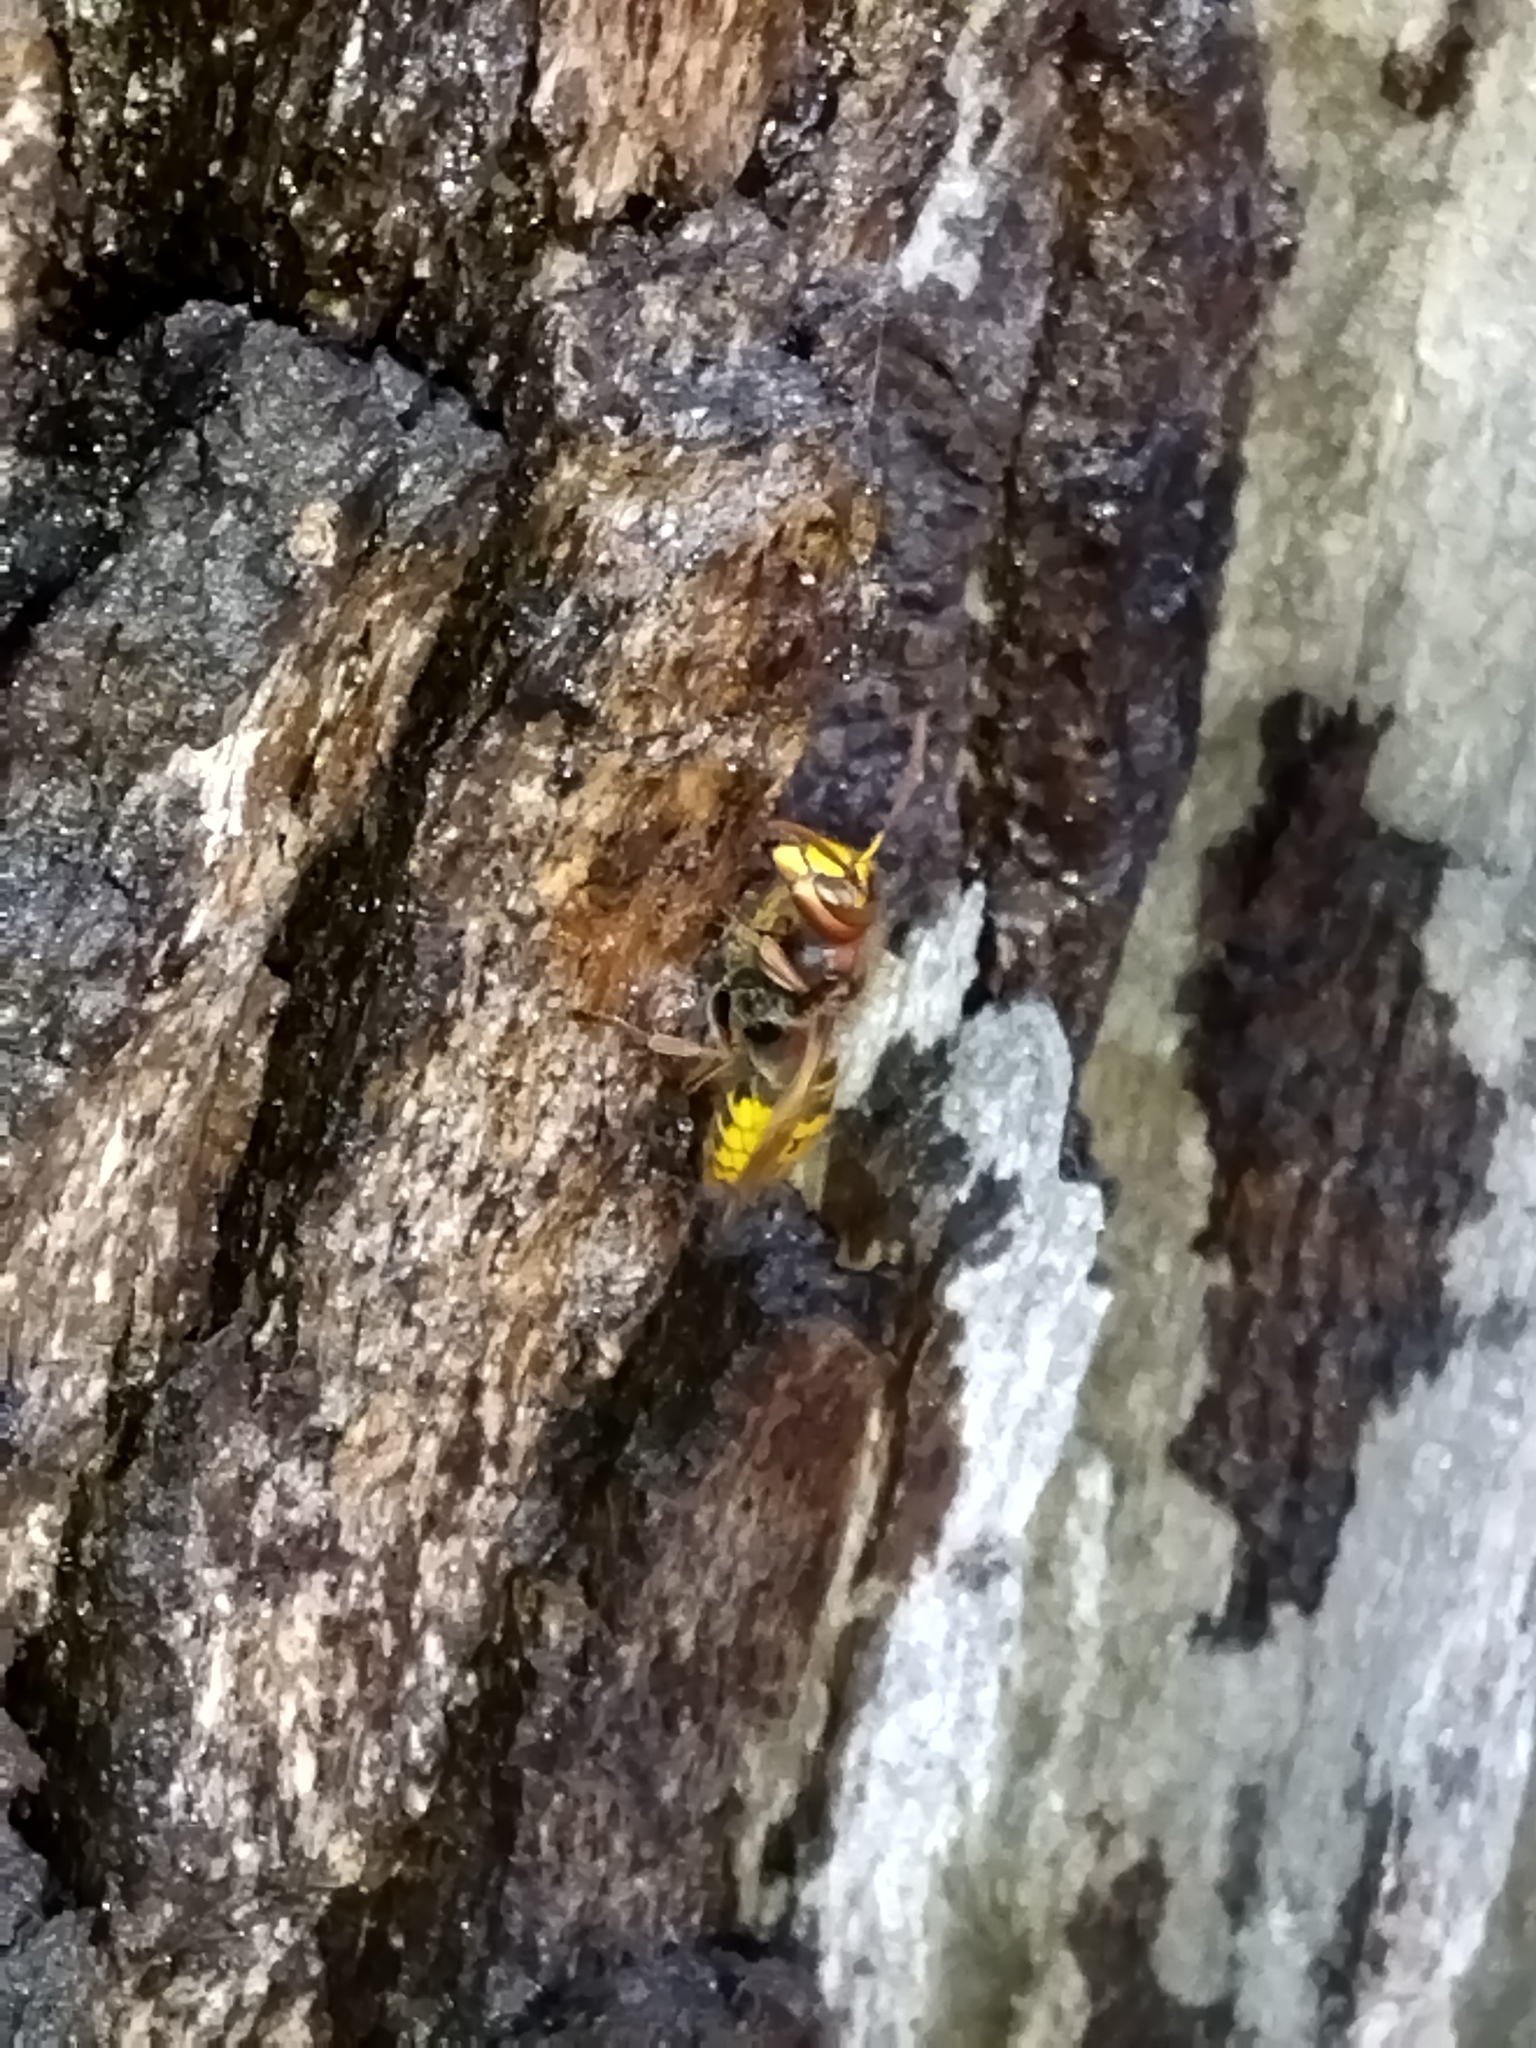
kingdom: Animalia
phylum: Arthropoda
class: Insecta
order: Hymenoptera
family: Vespidae
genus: Vespa
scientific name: Vespa crabro
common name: Hornet
